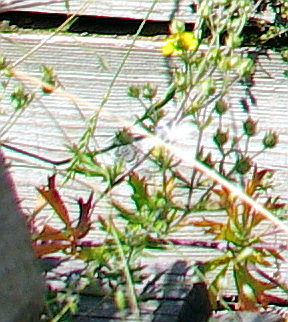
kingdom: Plantae
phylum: Tracheophyta
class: Magnoliopsida
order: Rosales
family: Rosaceae
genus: Potentilla
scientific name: Potentilla argentea
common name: Hoary cinquefoil
